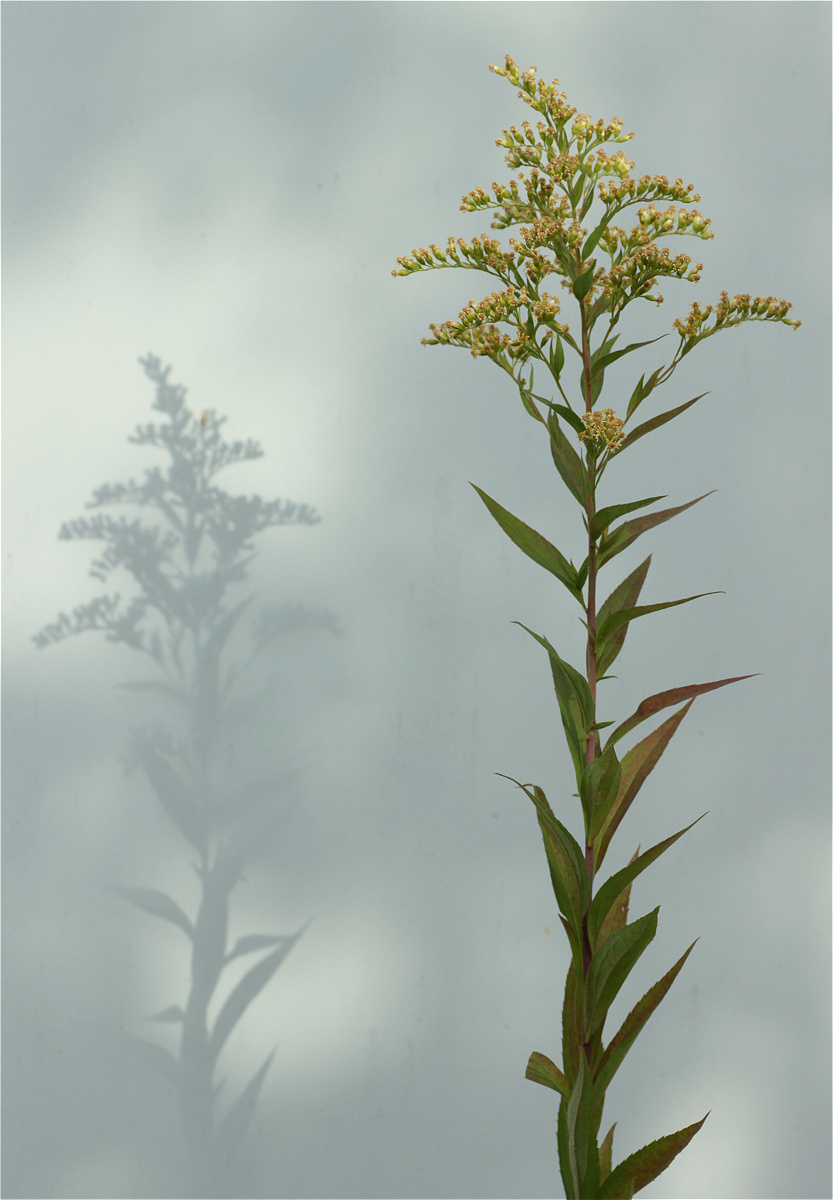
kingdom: Plantae
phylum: Tracheophyta
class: Magnoliopsida
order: Asterales
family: Asteraceae
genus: Solidago
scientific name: Solidago gigantea
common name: Giant goldenrod
